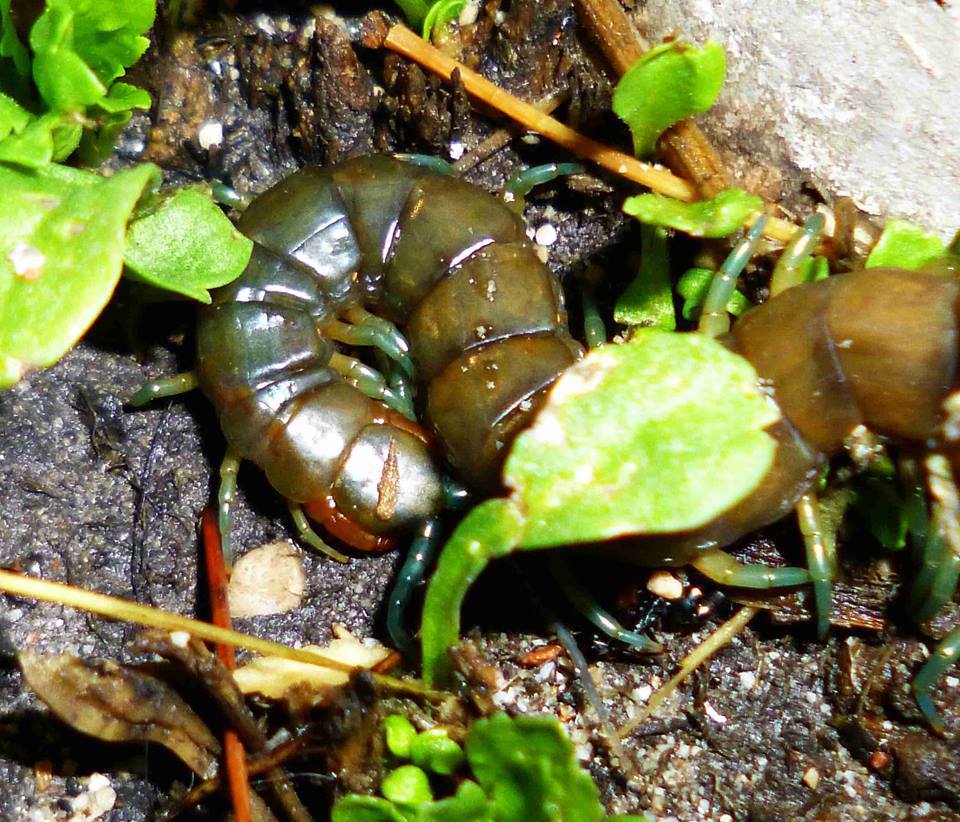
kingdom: Animalia
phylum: Arthropoda
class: Chilopoda
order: Scolopendromorpha
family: Scolopendridae
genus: Scolopendra
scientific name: Scolopendra dalmatica
